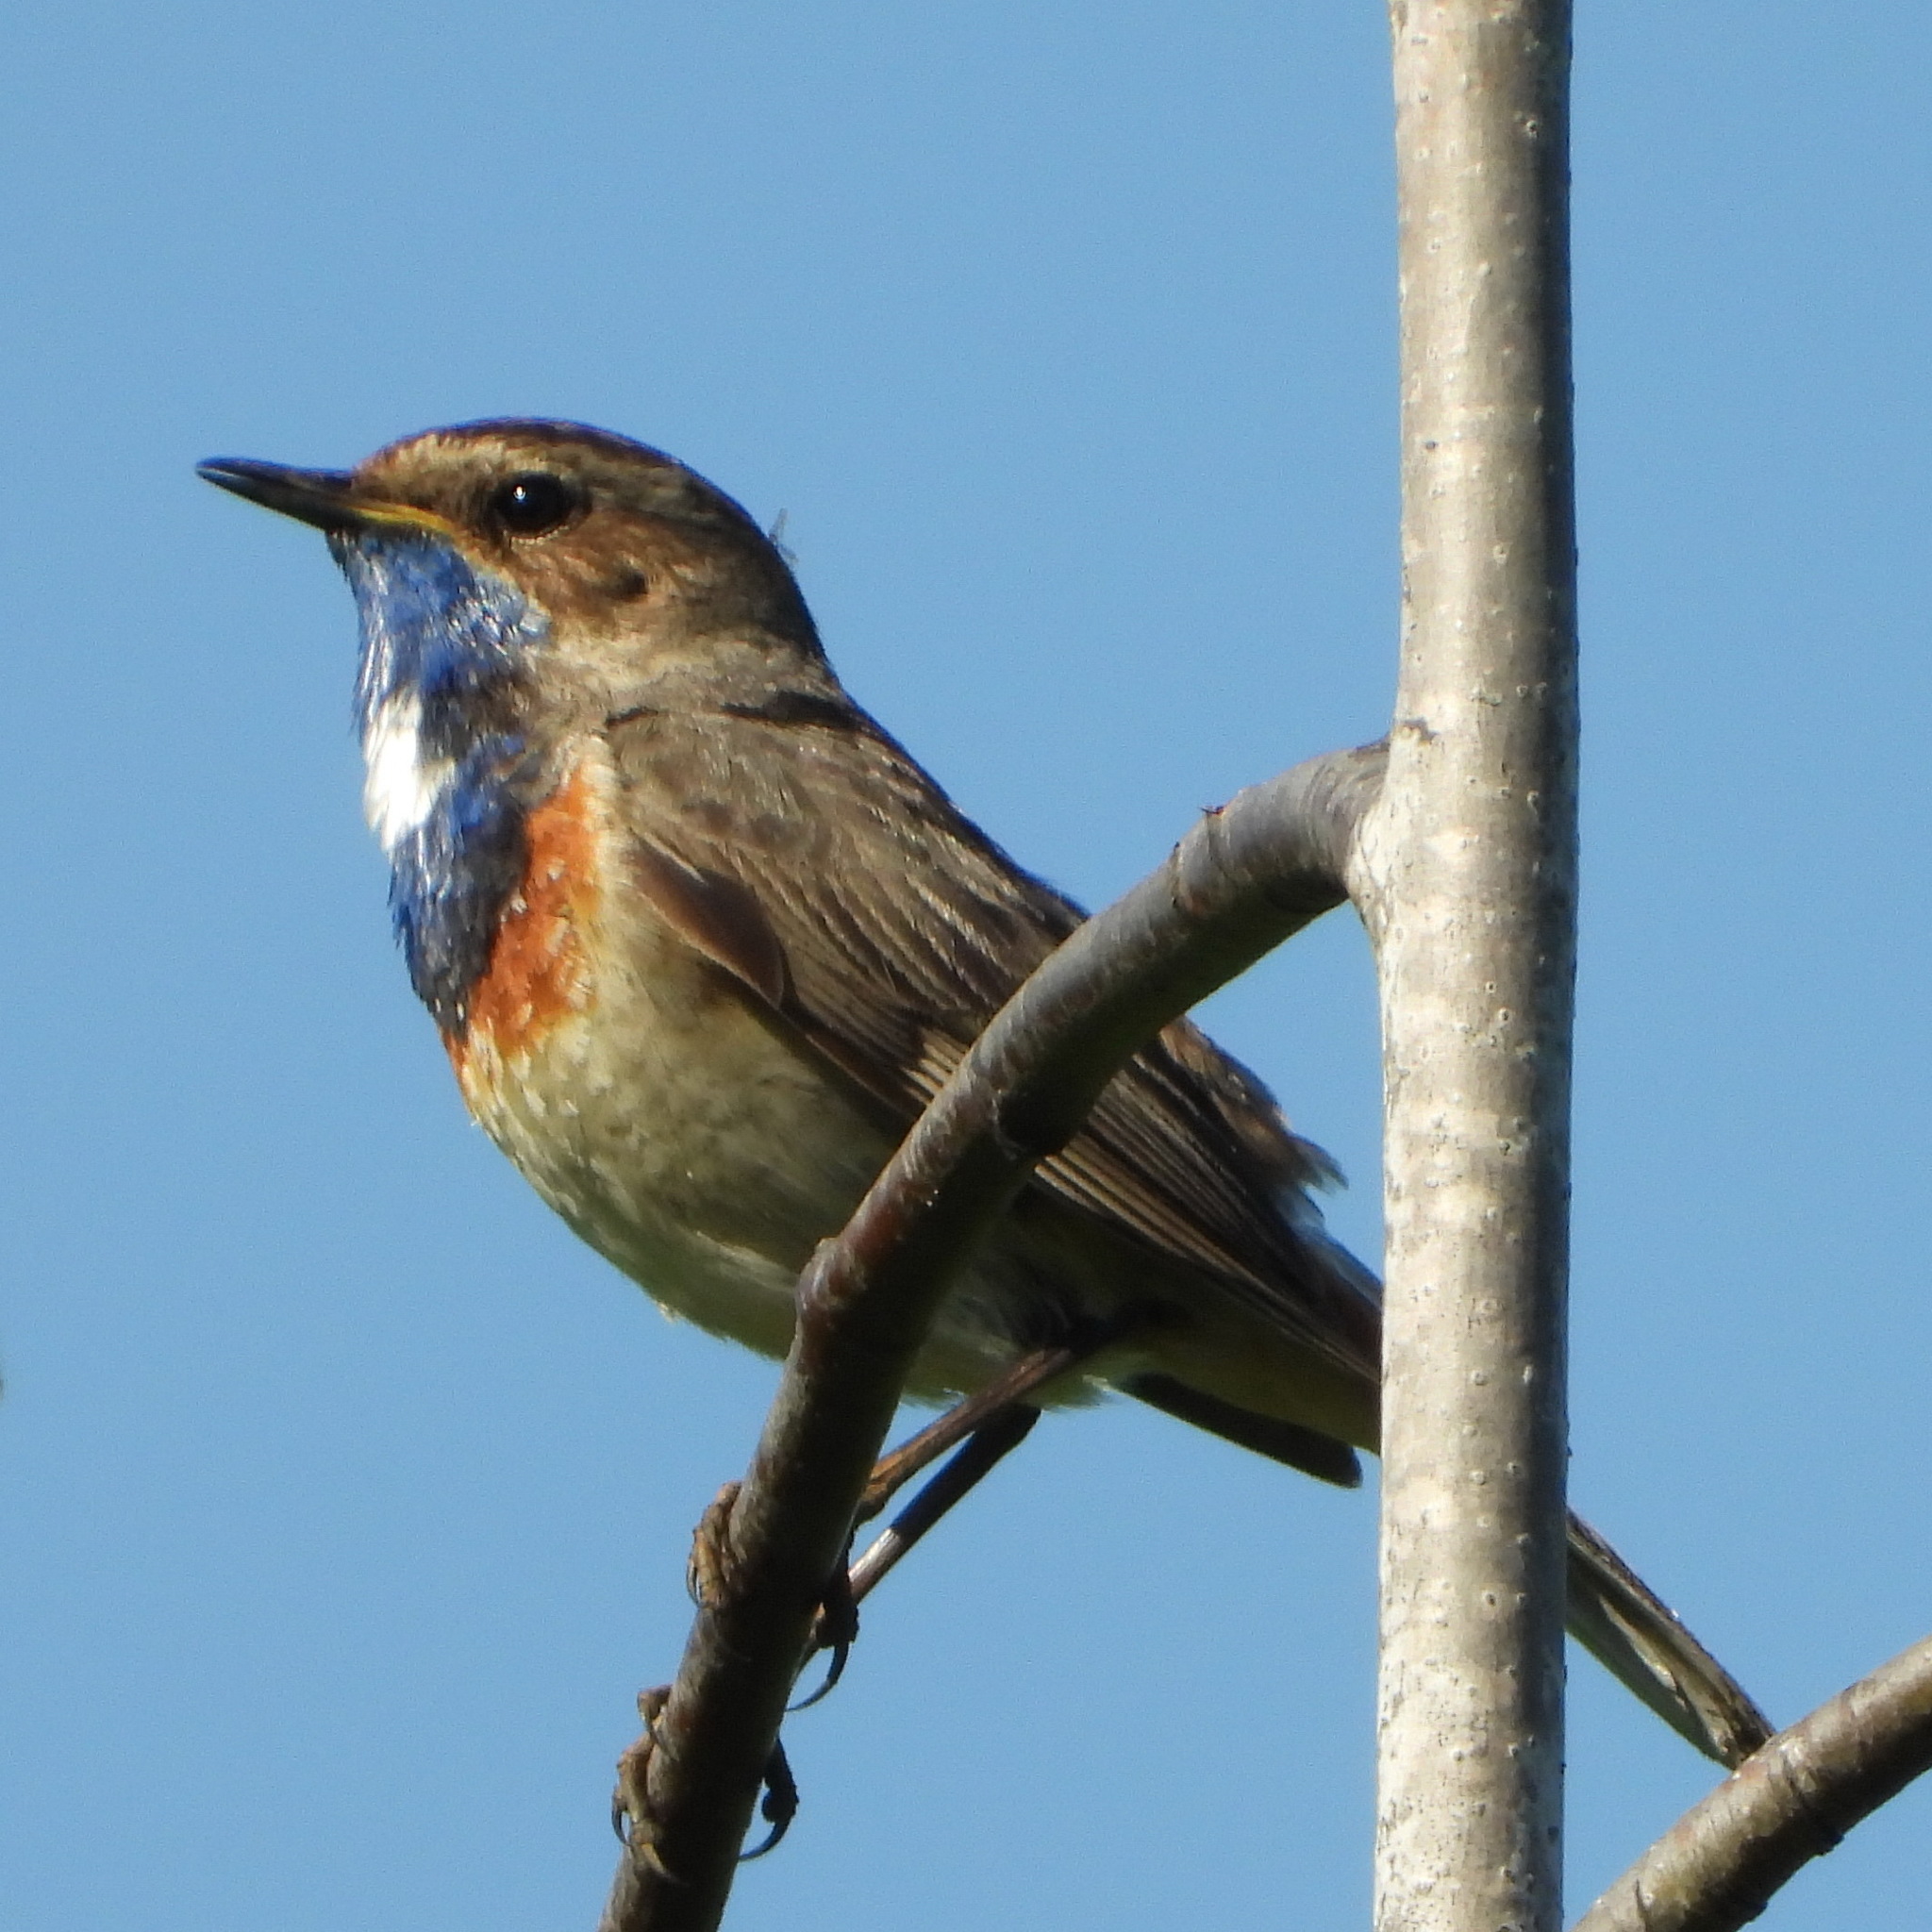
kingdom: Animalia
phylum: Chordata
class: Aves
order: Passeriformes
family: Muscicapidae
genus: Luscinia
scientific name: Luscinia svecica
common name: Bluethroat
